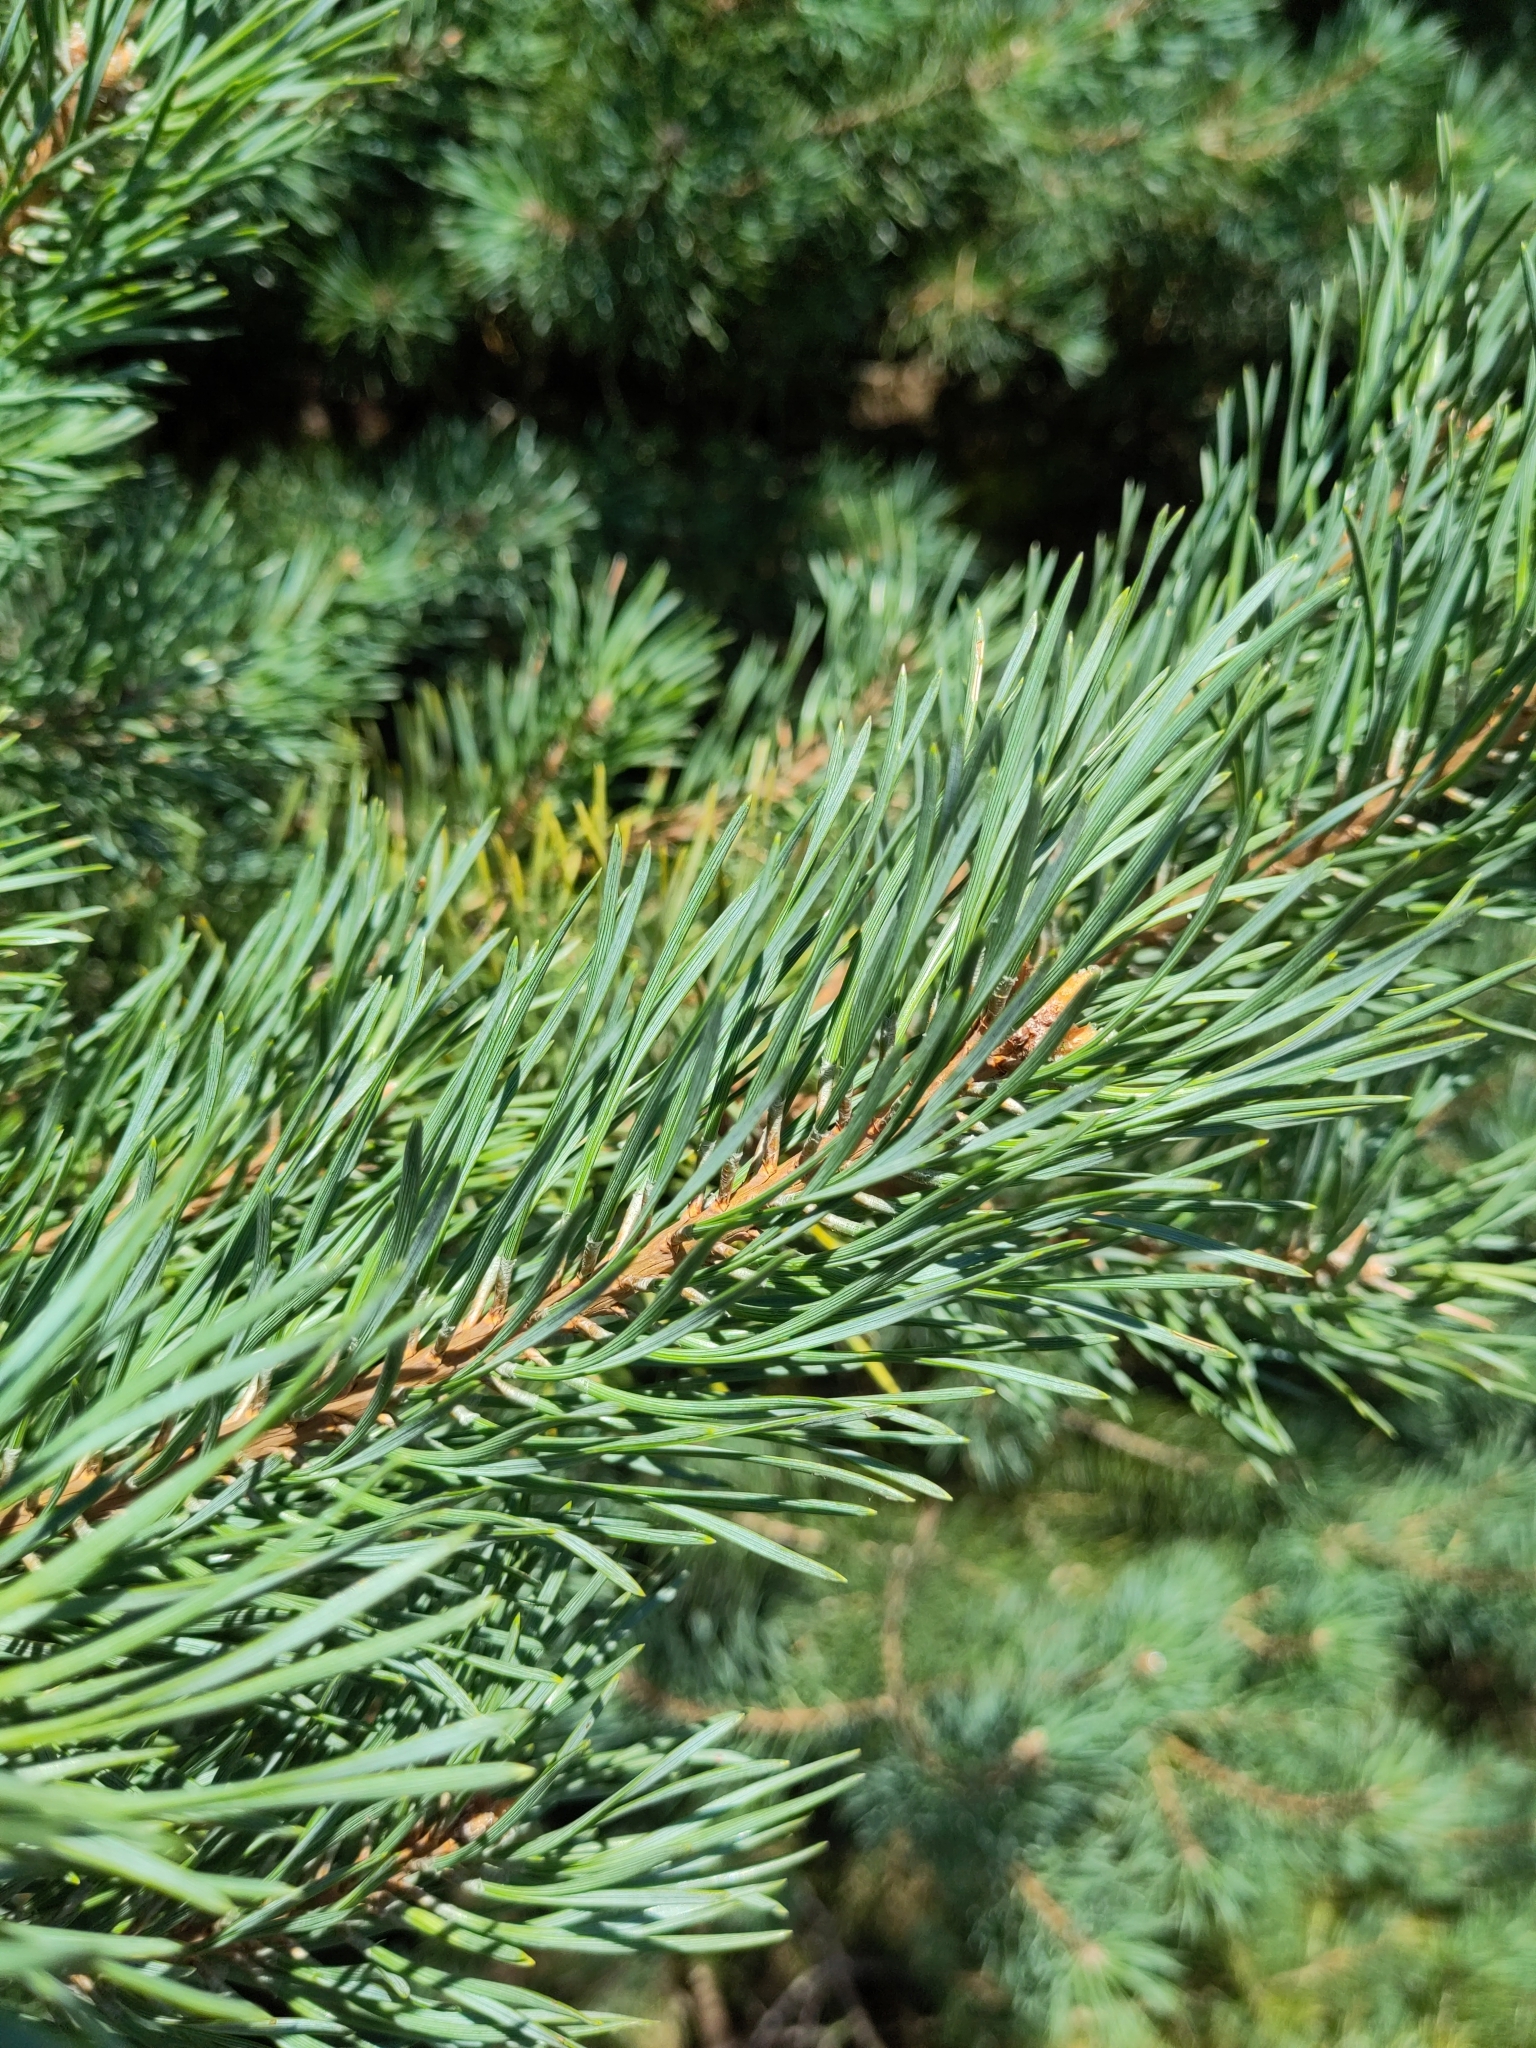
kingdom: Plantae
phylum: Tracheophyta
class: Pinopsida
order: Pinales
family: Pinaceae
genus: Pinus
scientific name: Pinus sylvestris
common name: Scots pine
